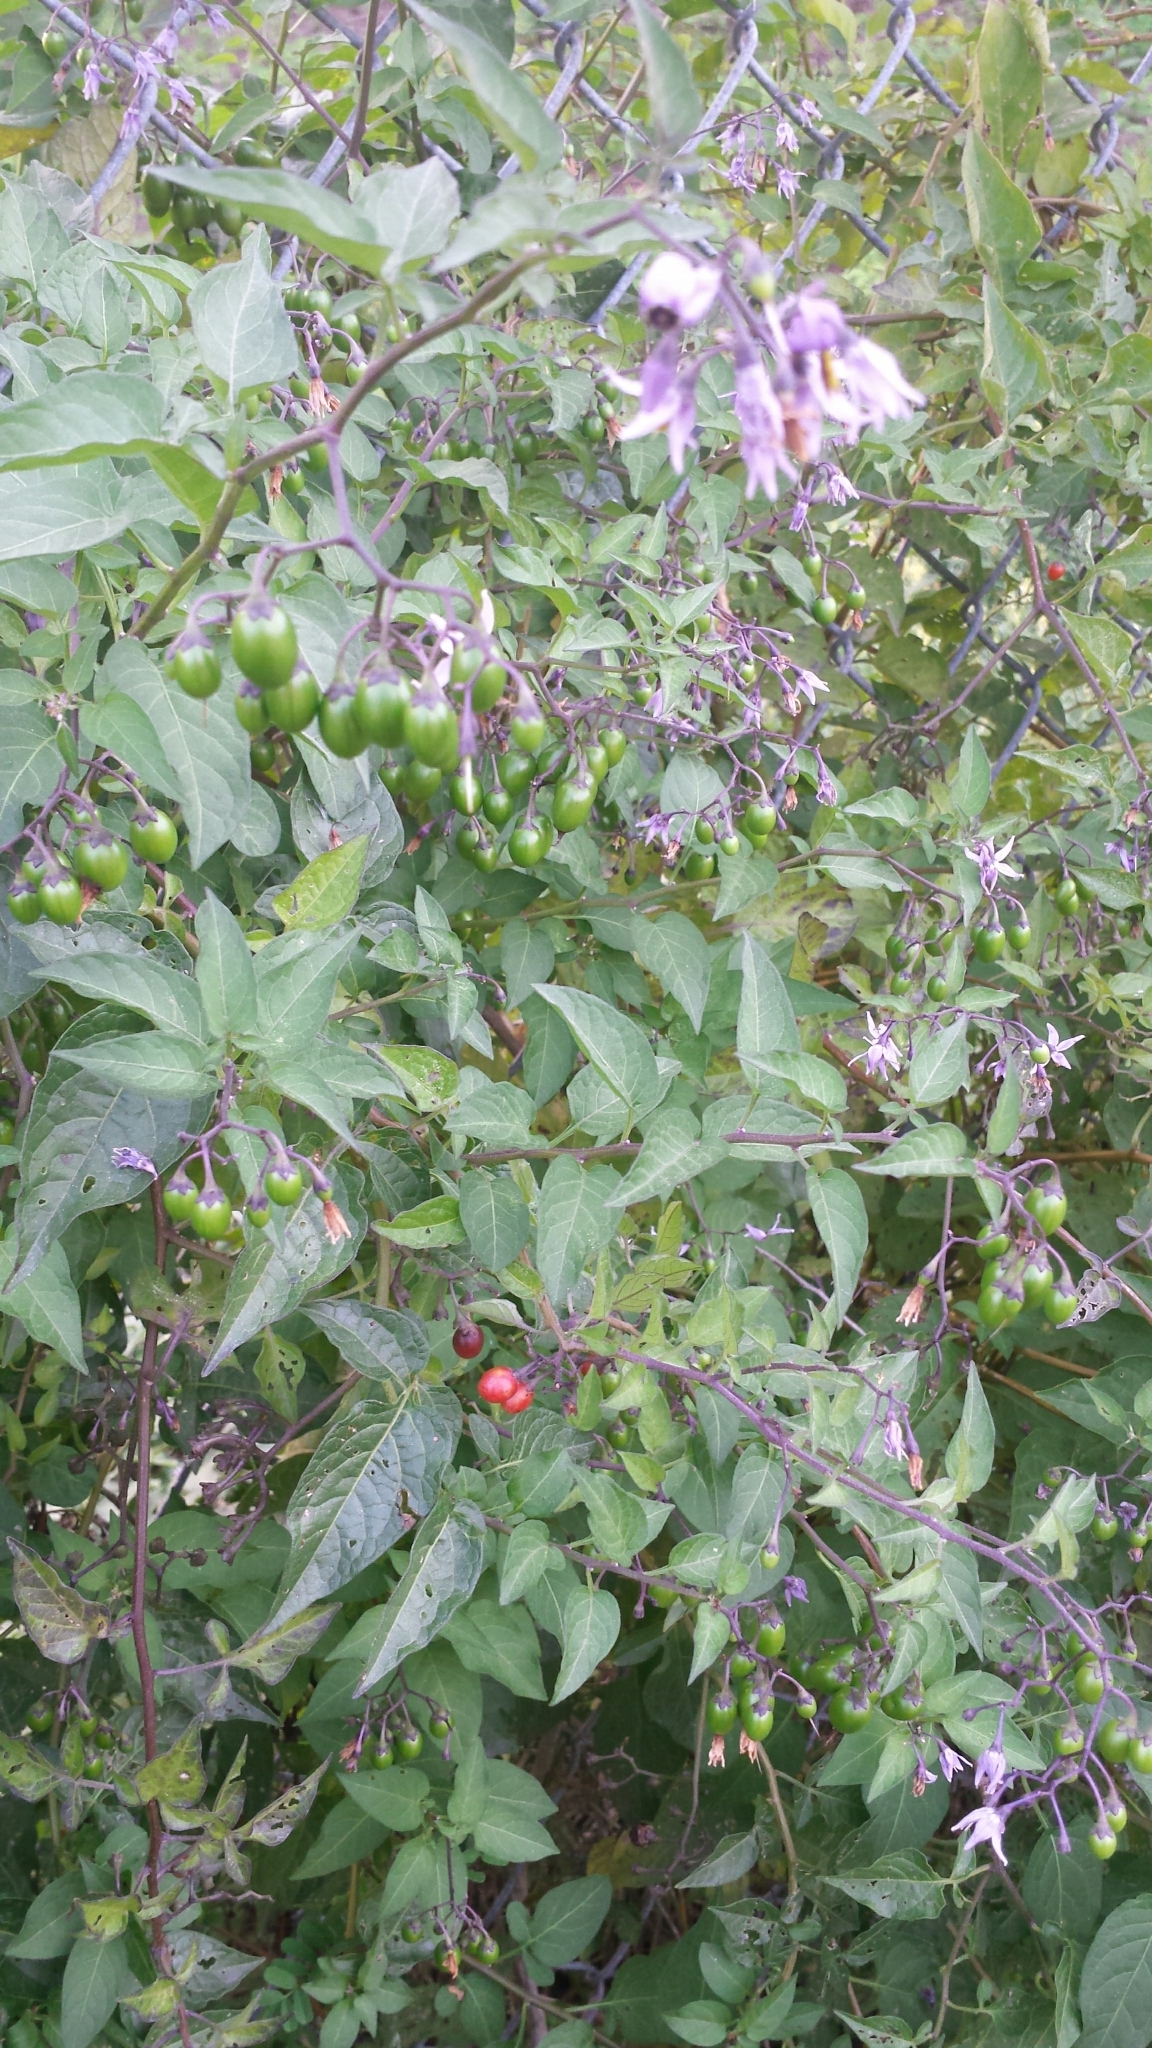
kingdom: Plantae
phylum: Tracheophyta
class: Magnoliopsida
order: Solanales
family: Solanaceae
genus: Solanum
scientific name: Solanum dulcamara
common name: Climbing nightshade
